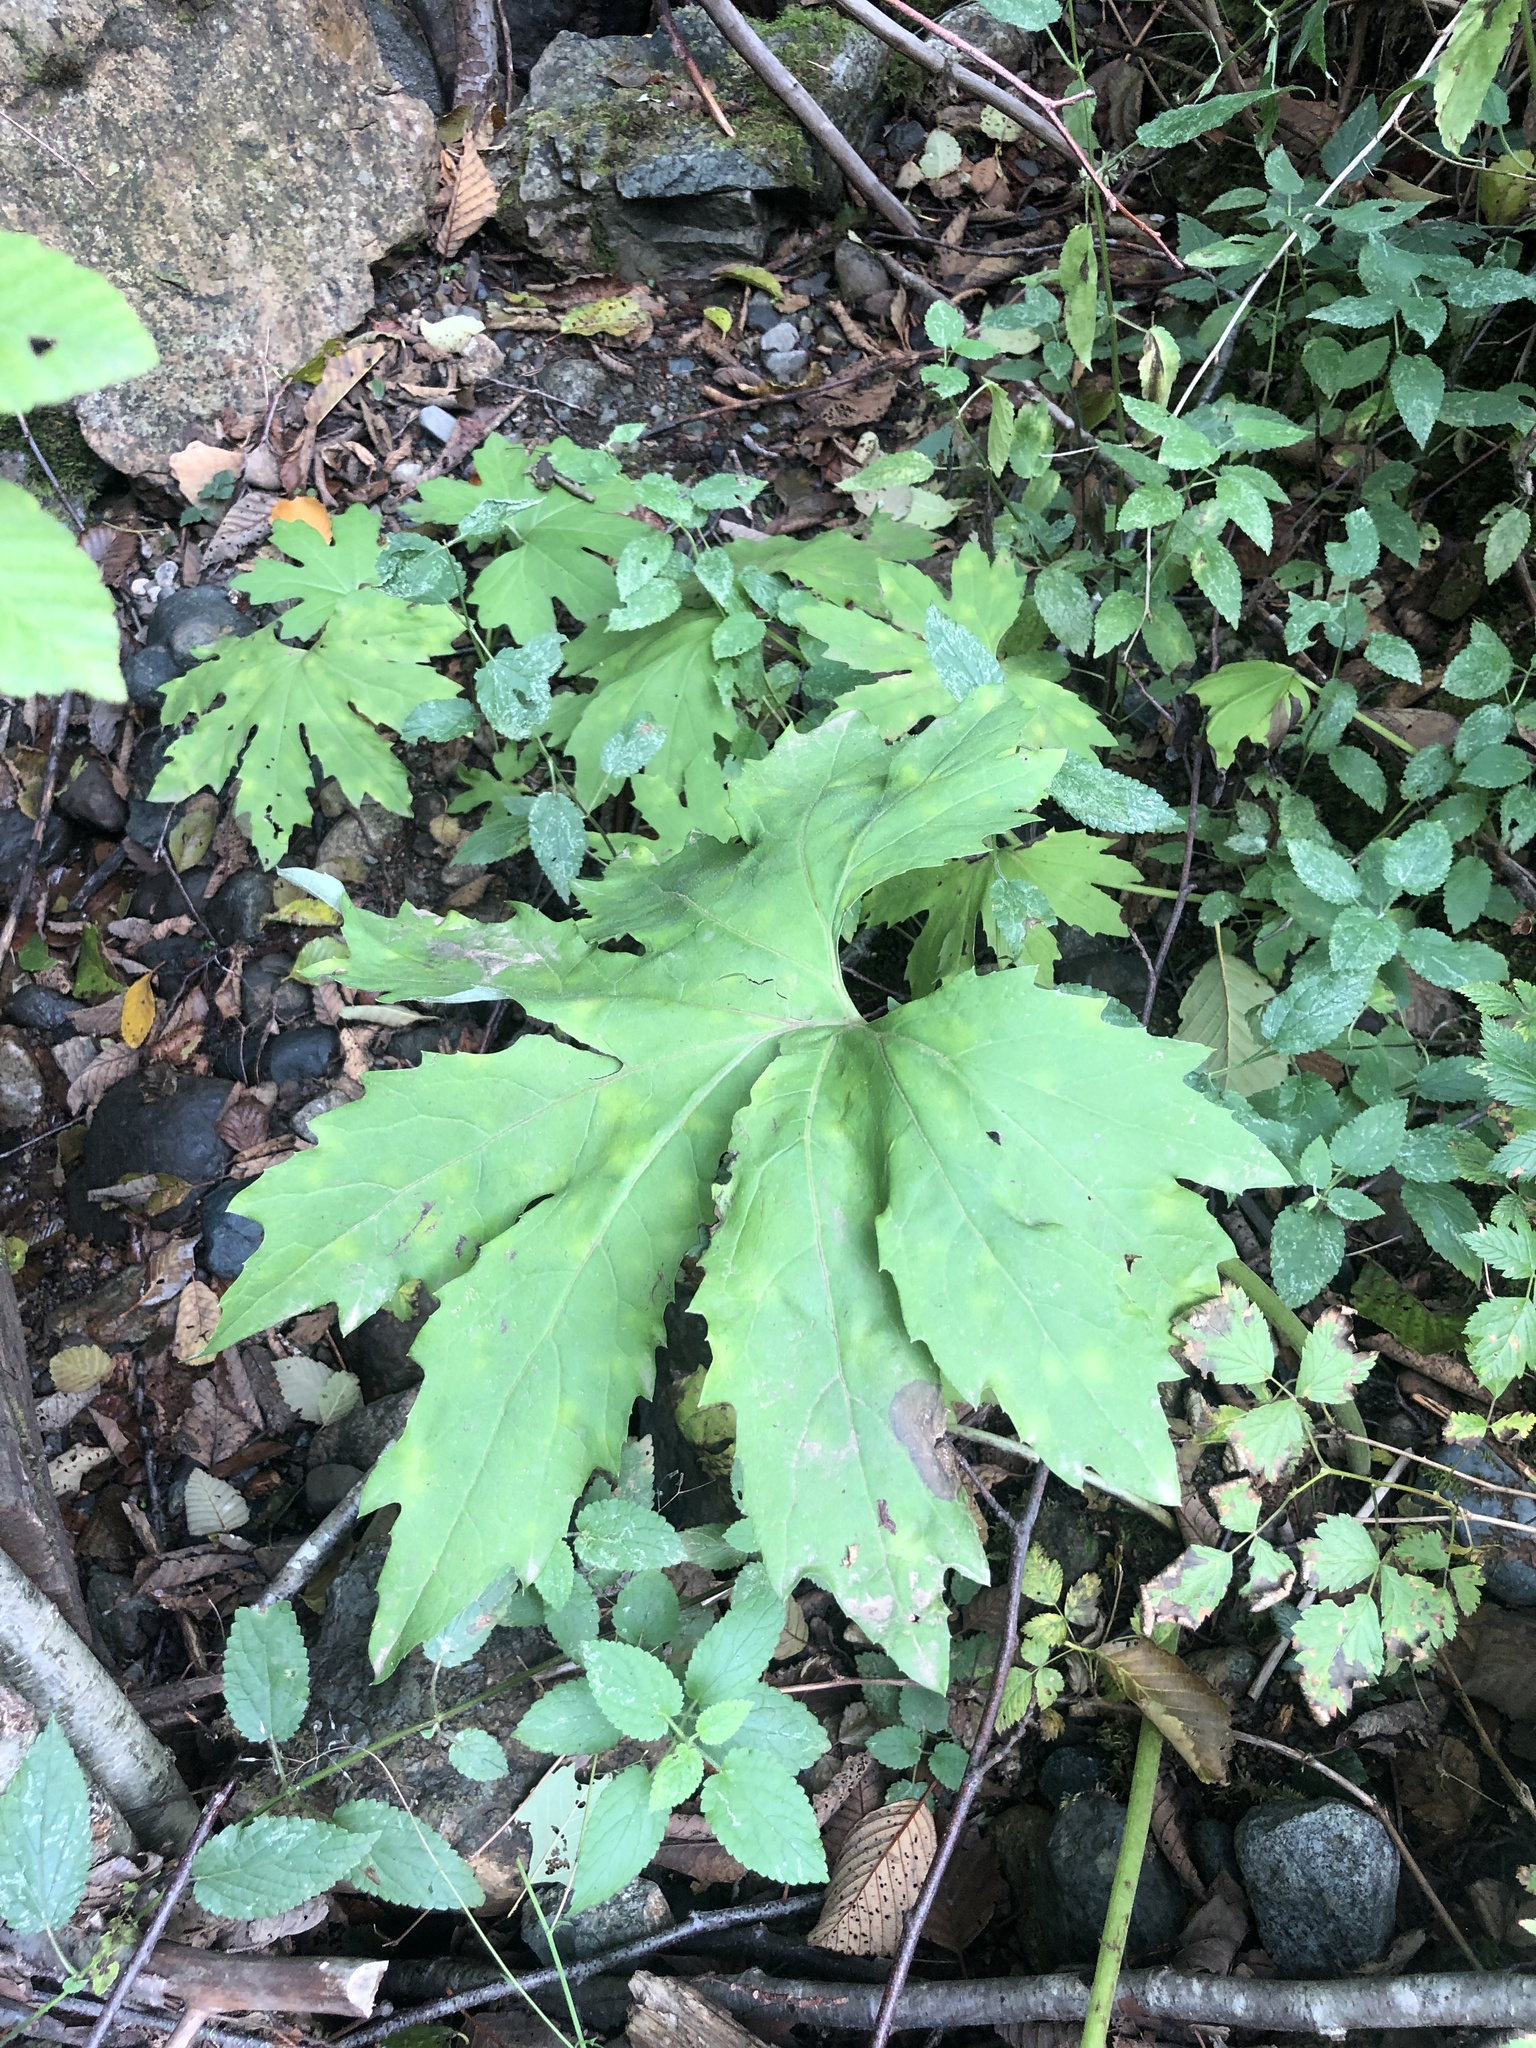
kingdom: Plantae
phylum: Tracheophyta
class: Magnoliopsida
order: Asterales
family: Asteraceae
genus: Petasites
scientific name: Petasites frigidus
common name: Arctic butterbur
